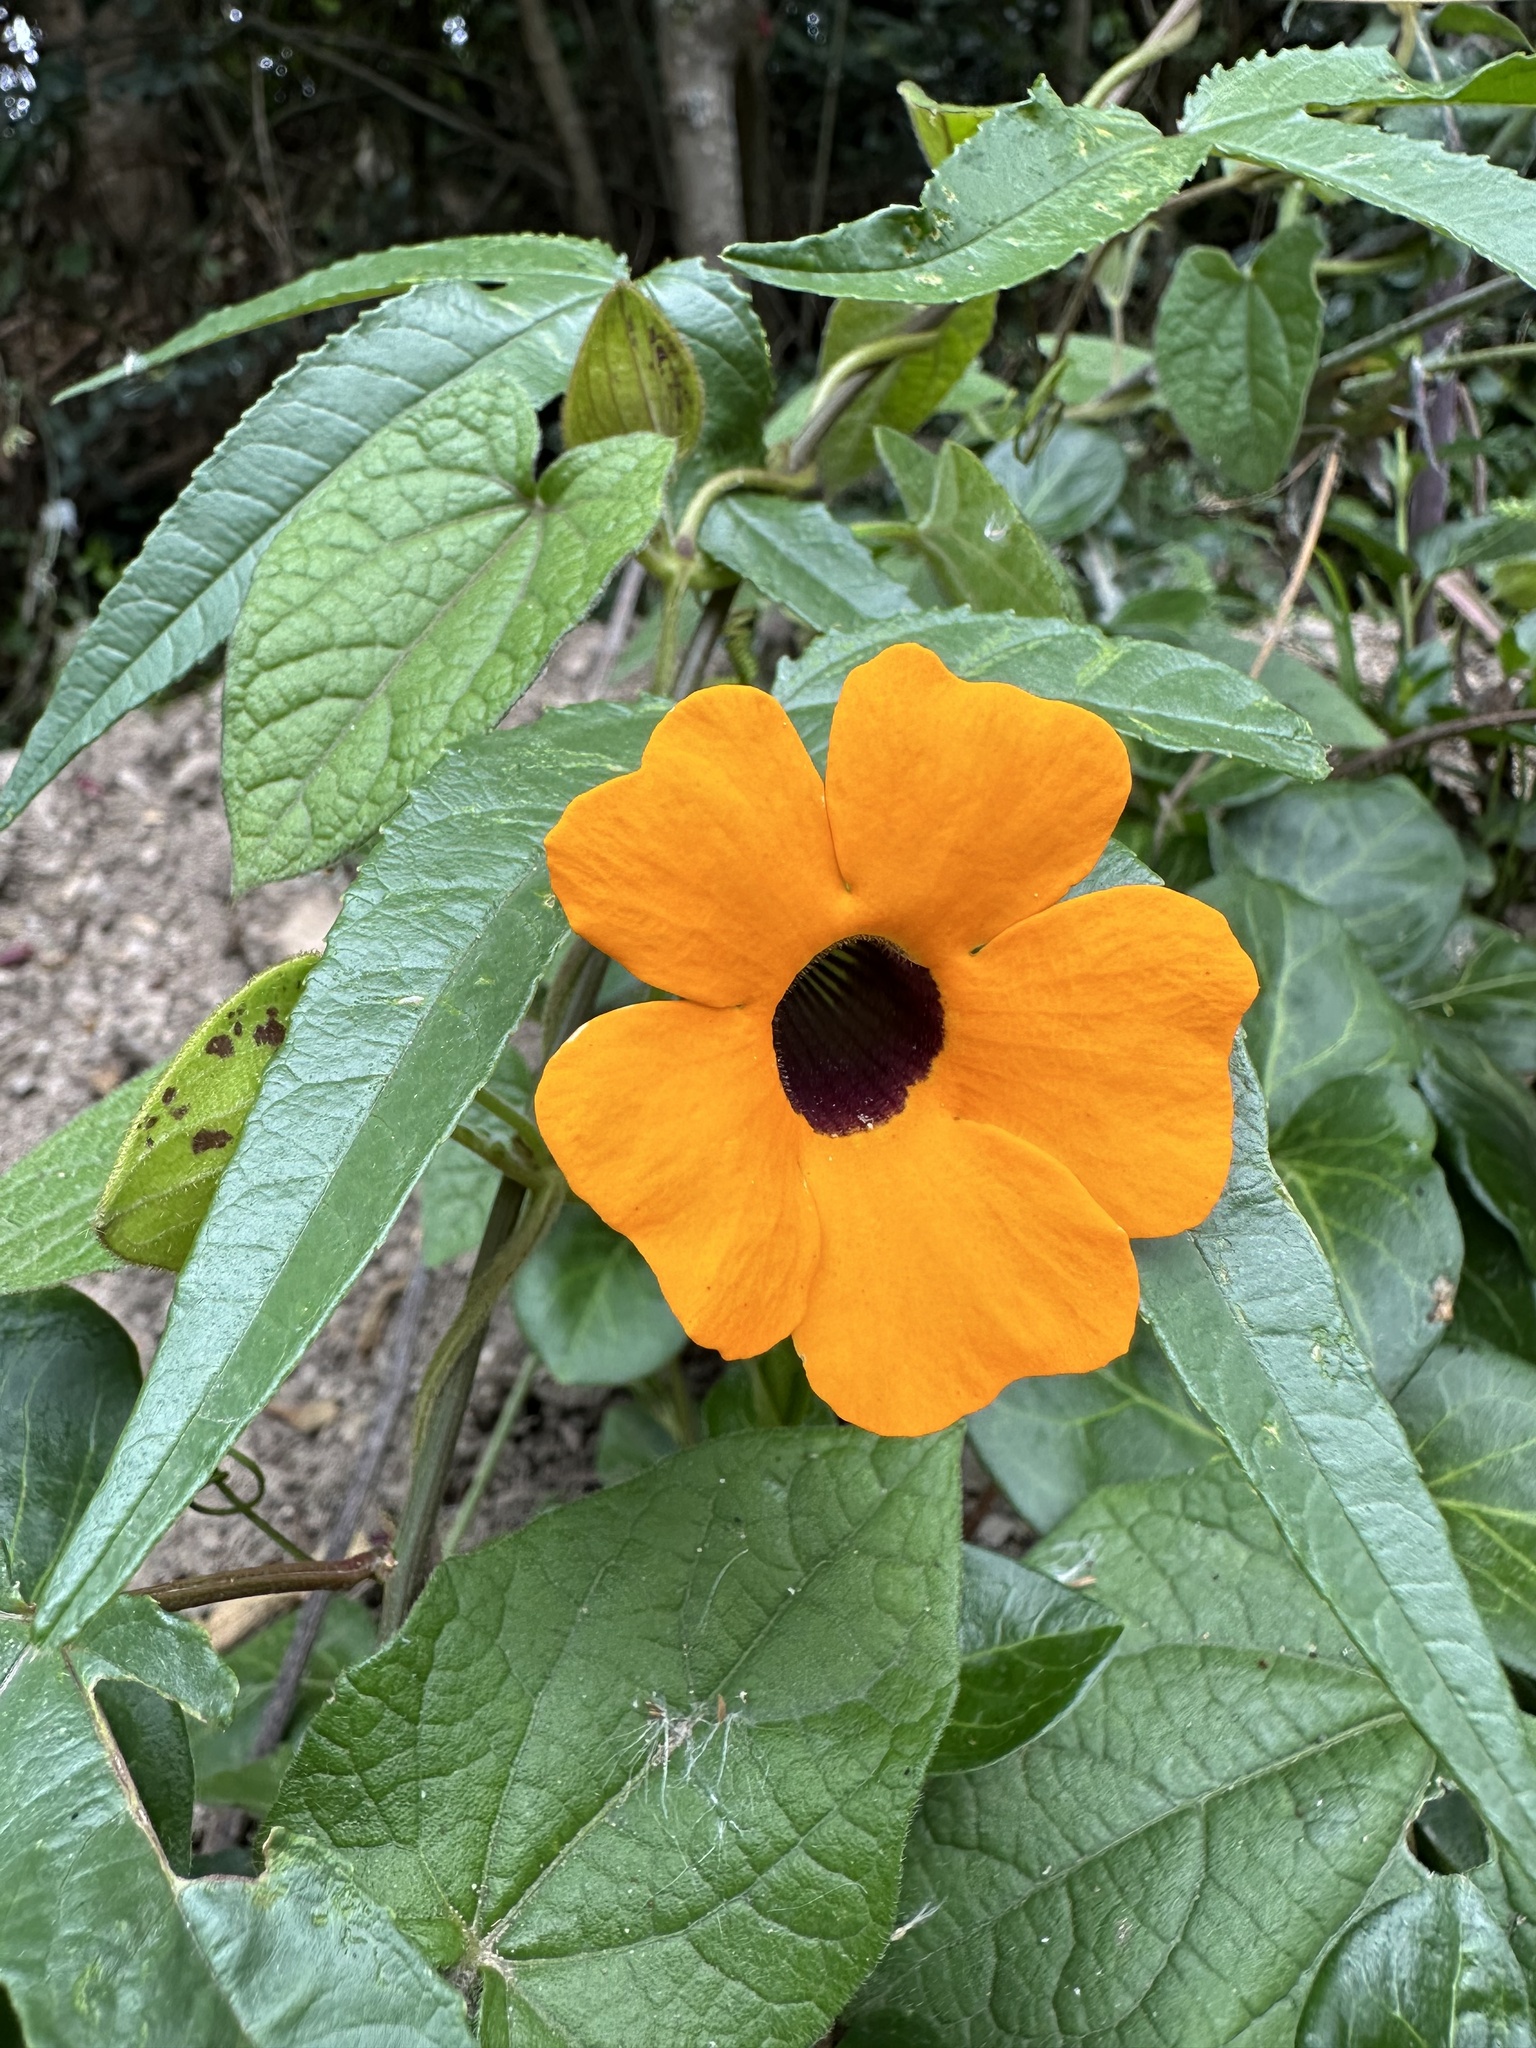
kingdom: Plantae
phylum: Tracheophyta
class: Magnoliopsida
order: Lamiales
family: Acanthaceae
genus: Thunbergia
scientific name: Thunbergia alata
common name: Blackeyed susan vine
